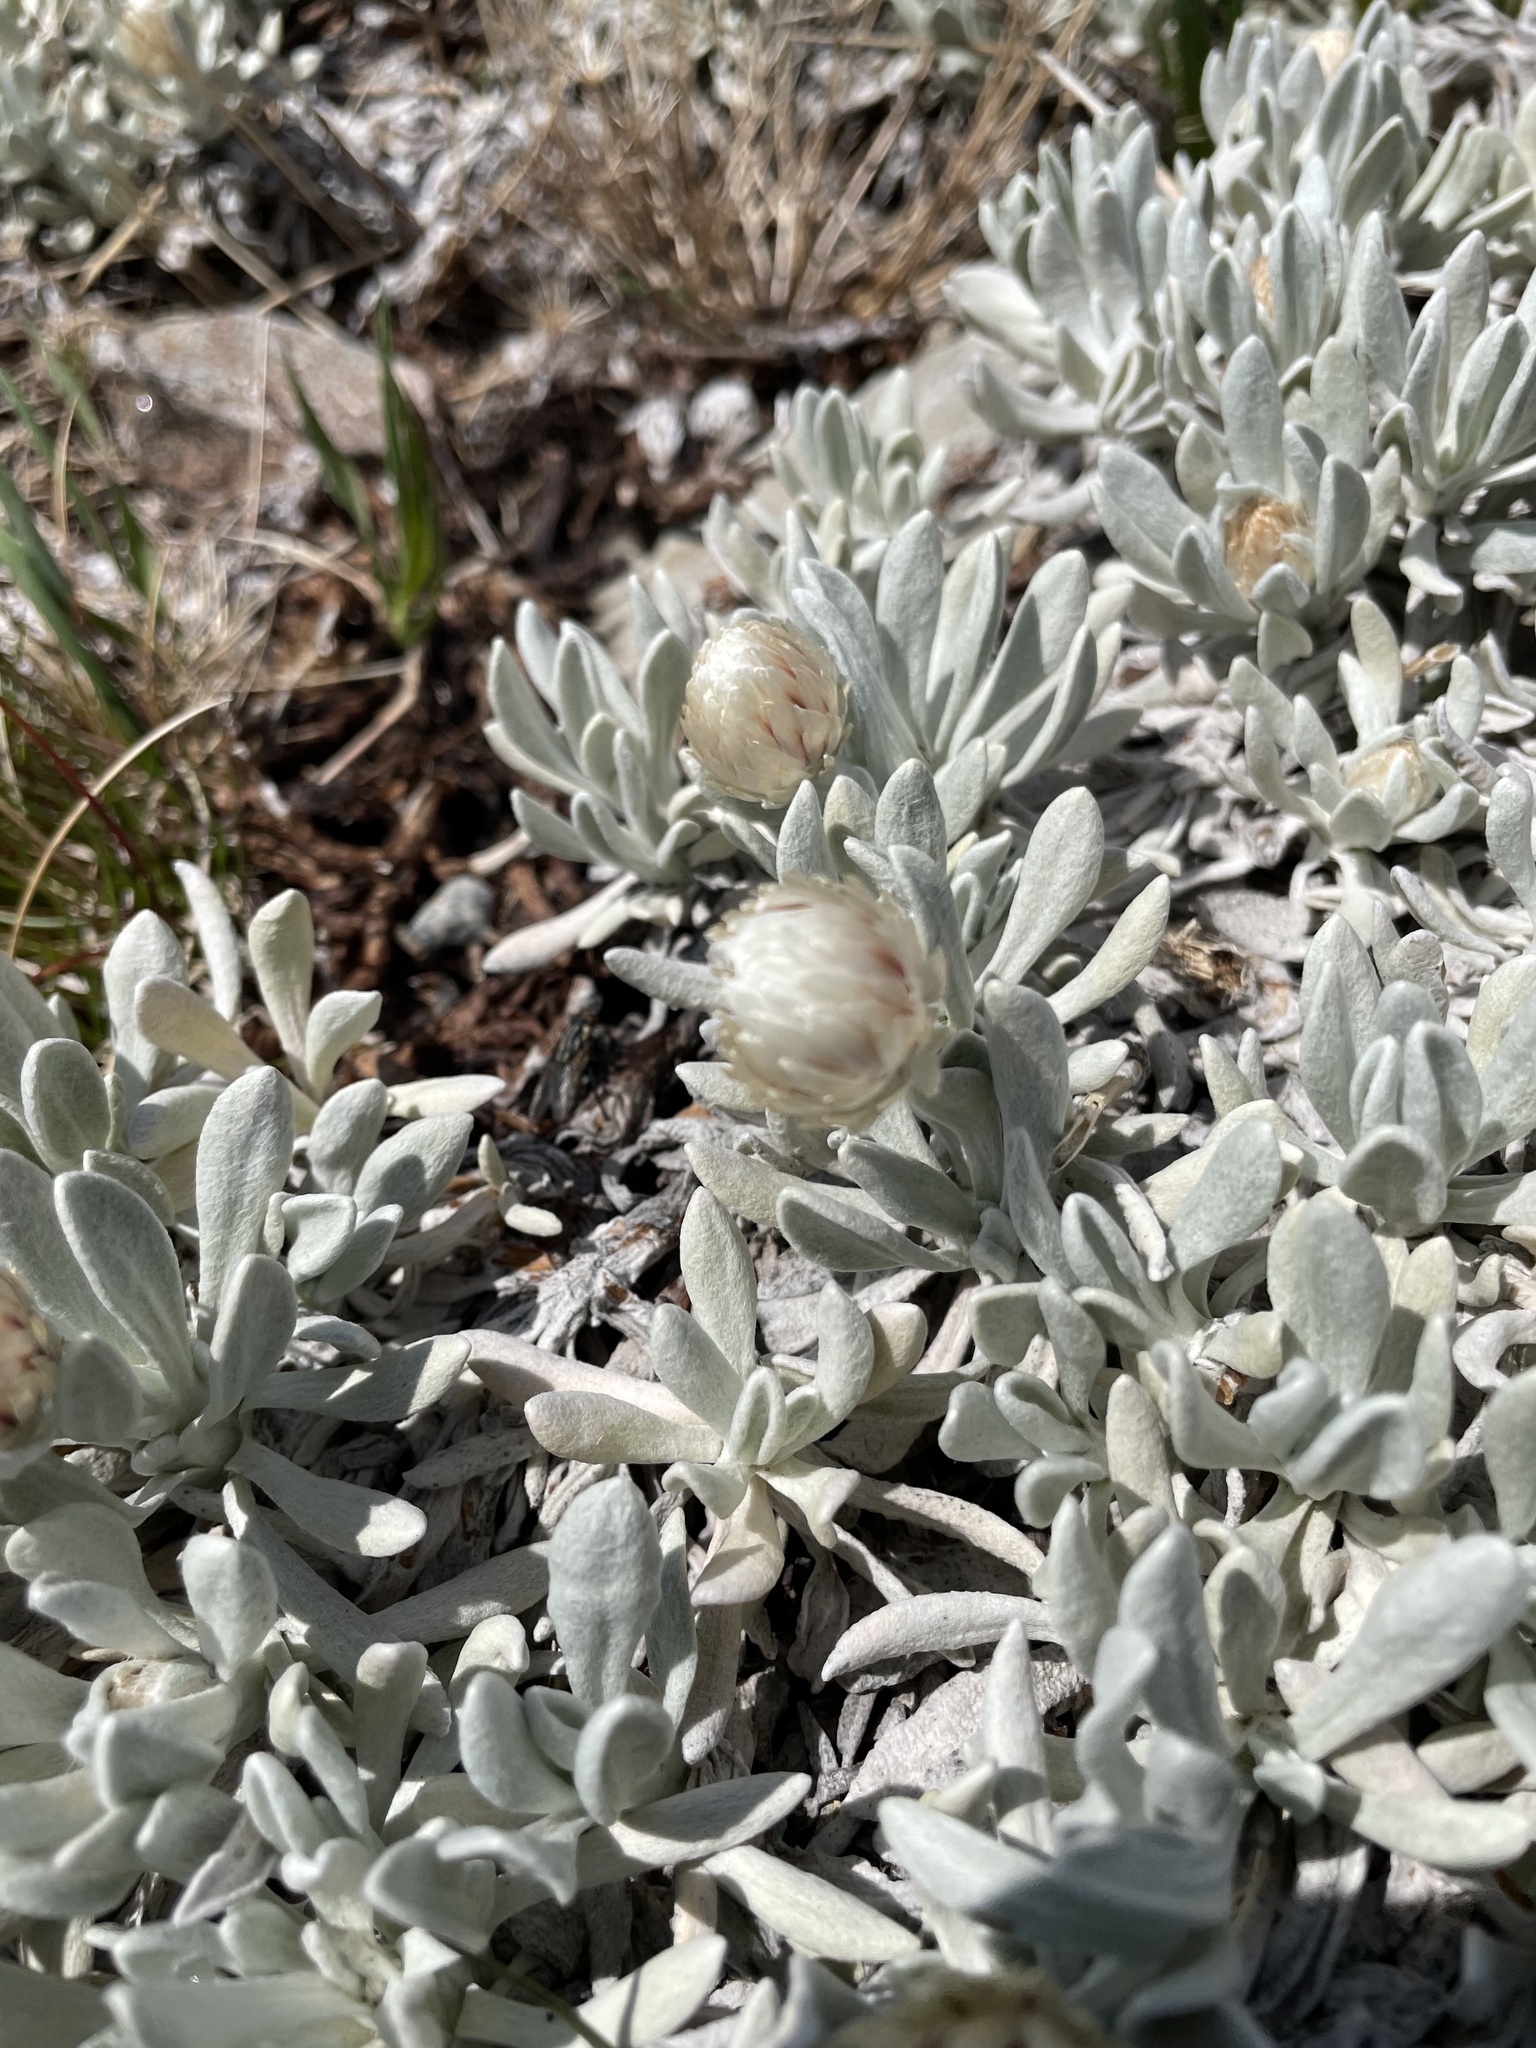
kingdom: Plantae
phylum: Tracheophyta
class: Magnoliopsida
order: Asterales
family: Asteraceae
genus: Leucochrysum
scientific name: Leucochrysum alpinum
